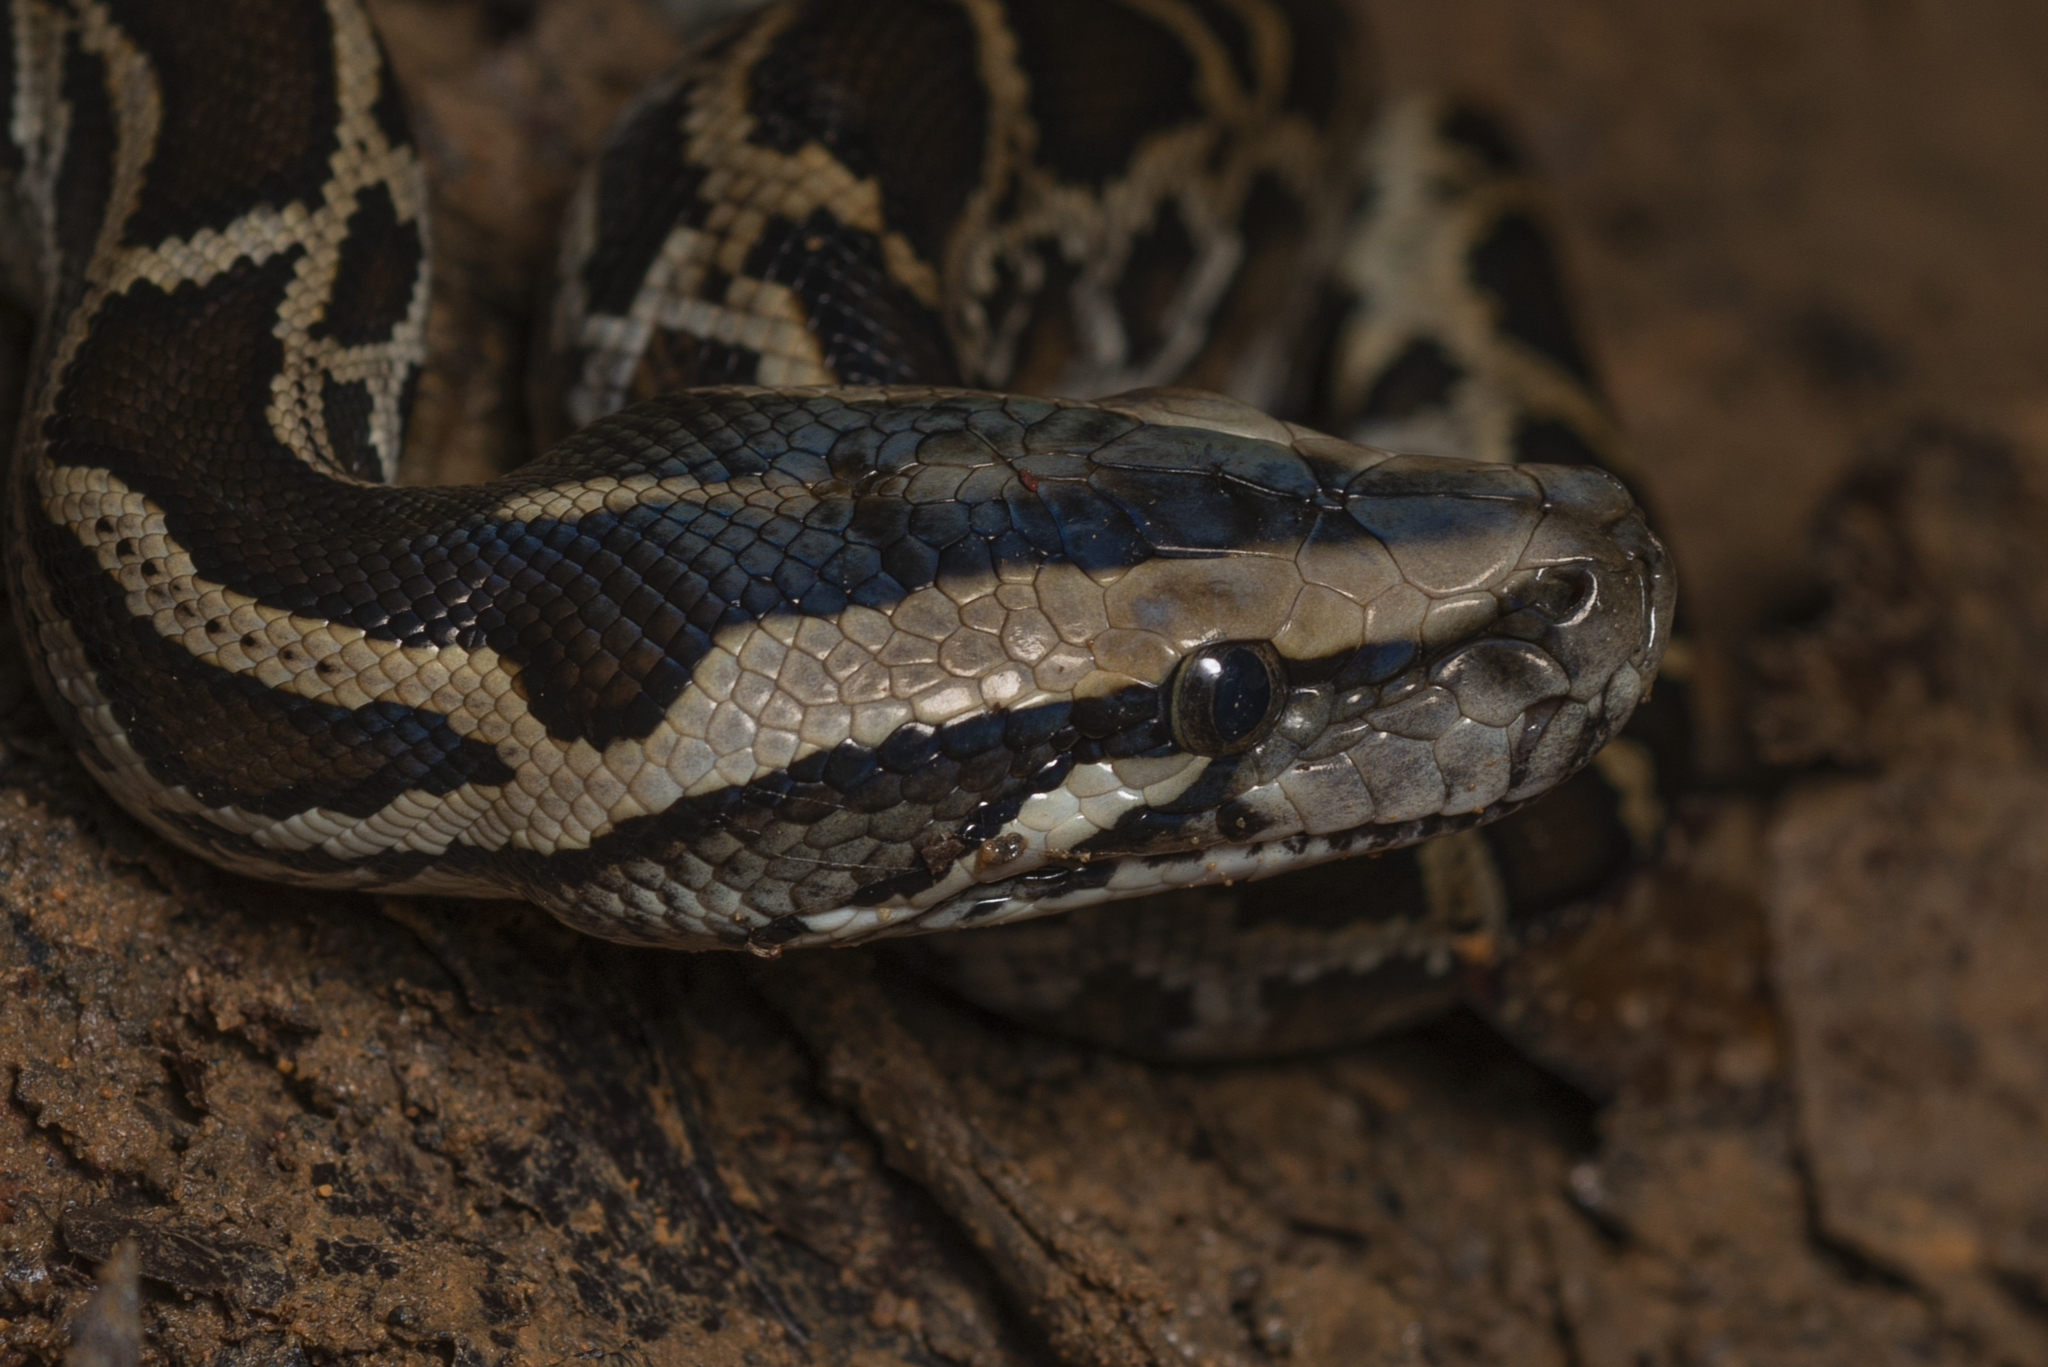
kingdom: Animalia
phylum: Chordata
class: Squamata
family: Pythonidae
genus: Python
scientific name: Python bivittatus
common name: Burmese python
